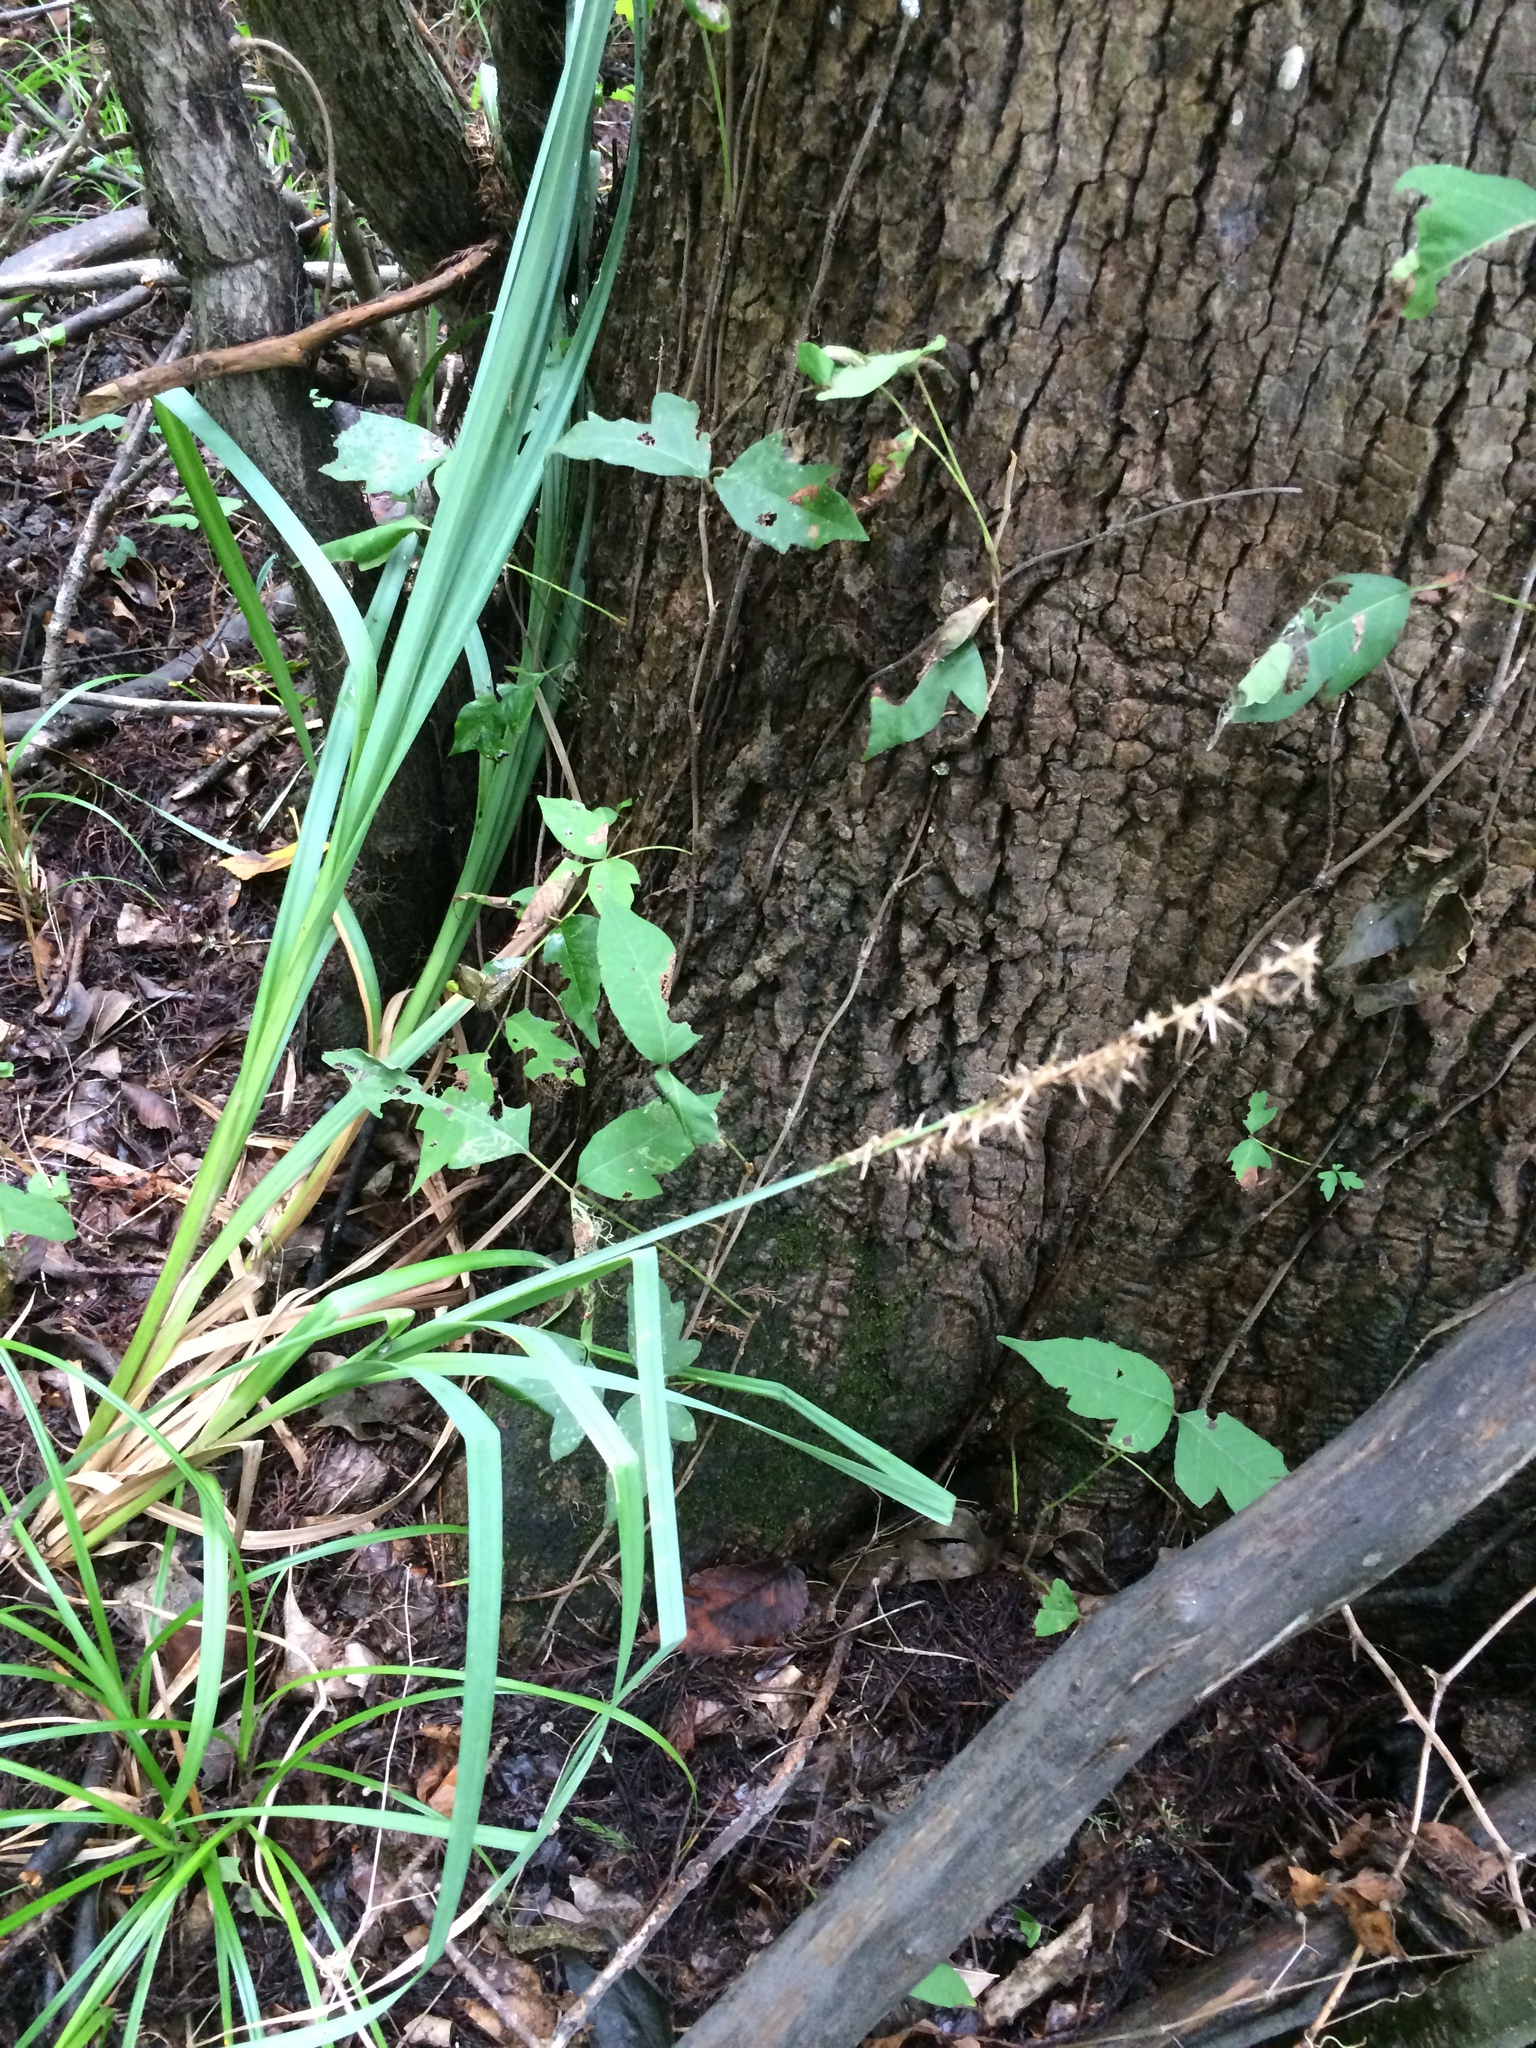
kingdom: Plantae
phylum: Tracheophyta
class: Liliopsida
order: Poales
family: Cyperaceae
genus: Carex
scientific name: Carex crus-corvi
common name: Crow-spur sedge
